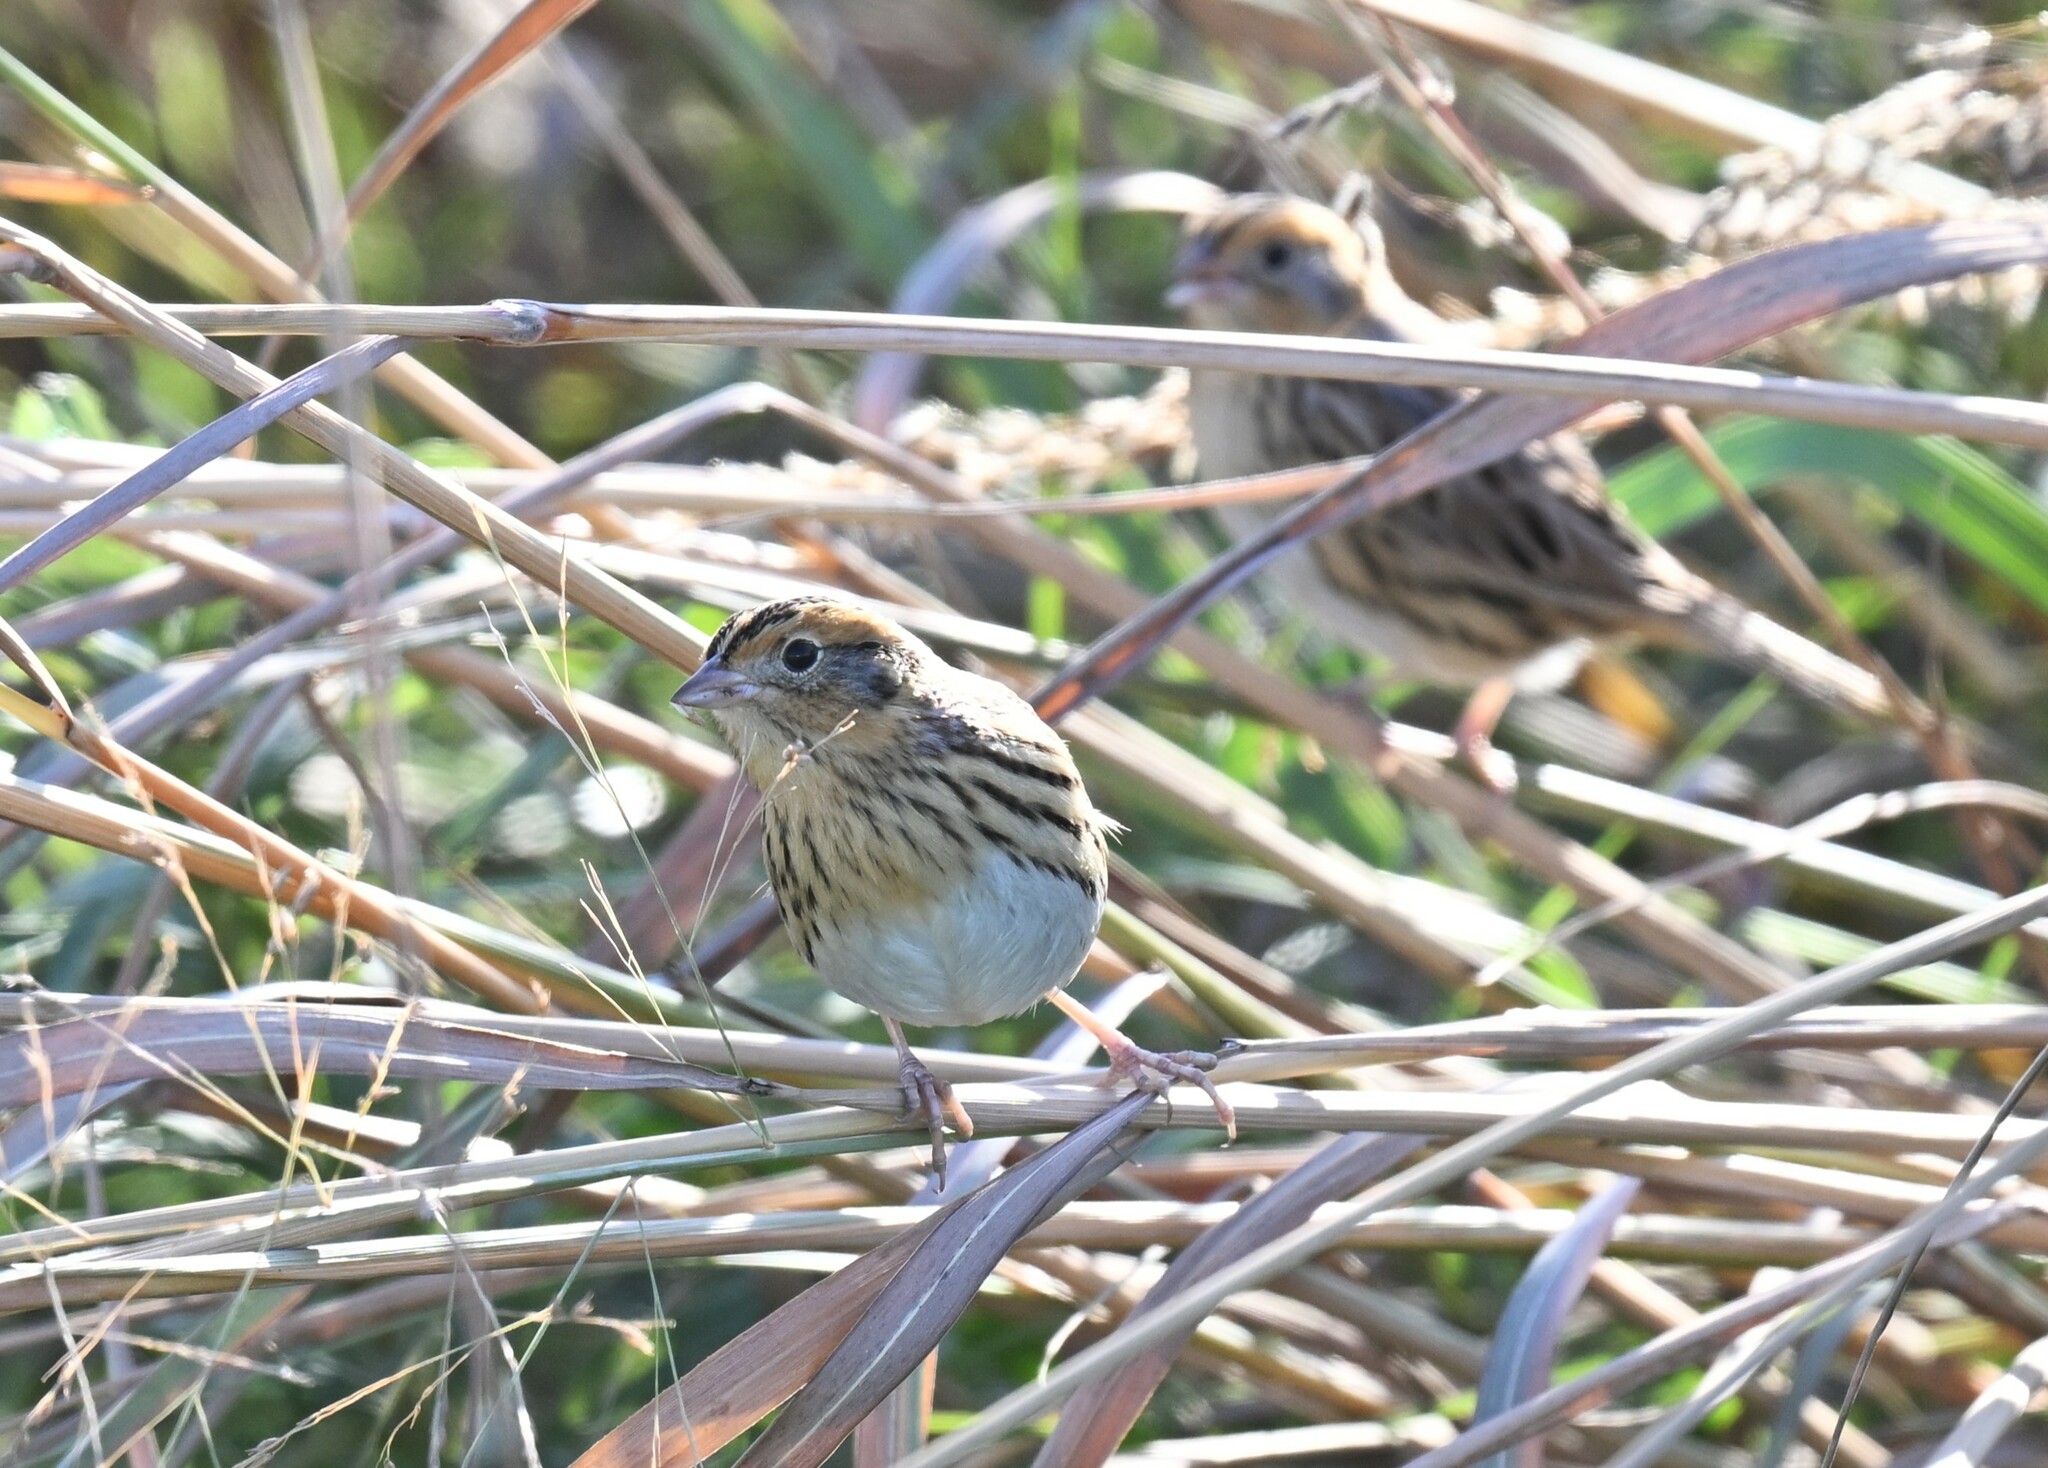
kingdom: Animalia
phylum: Chordata
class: Aves
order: Passeriformes
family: Passerellidae
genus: Ammospiza
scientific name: Ammospiza leconteii
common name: Le conte's sparrow
